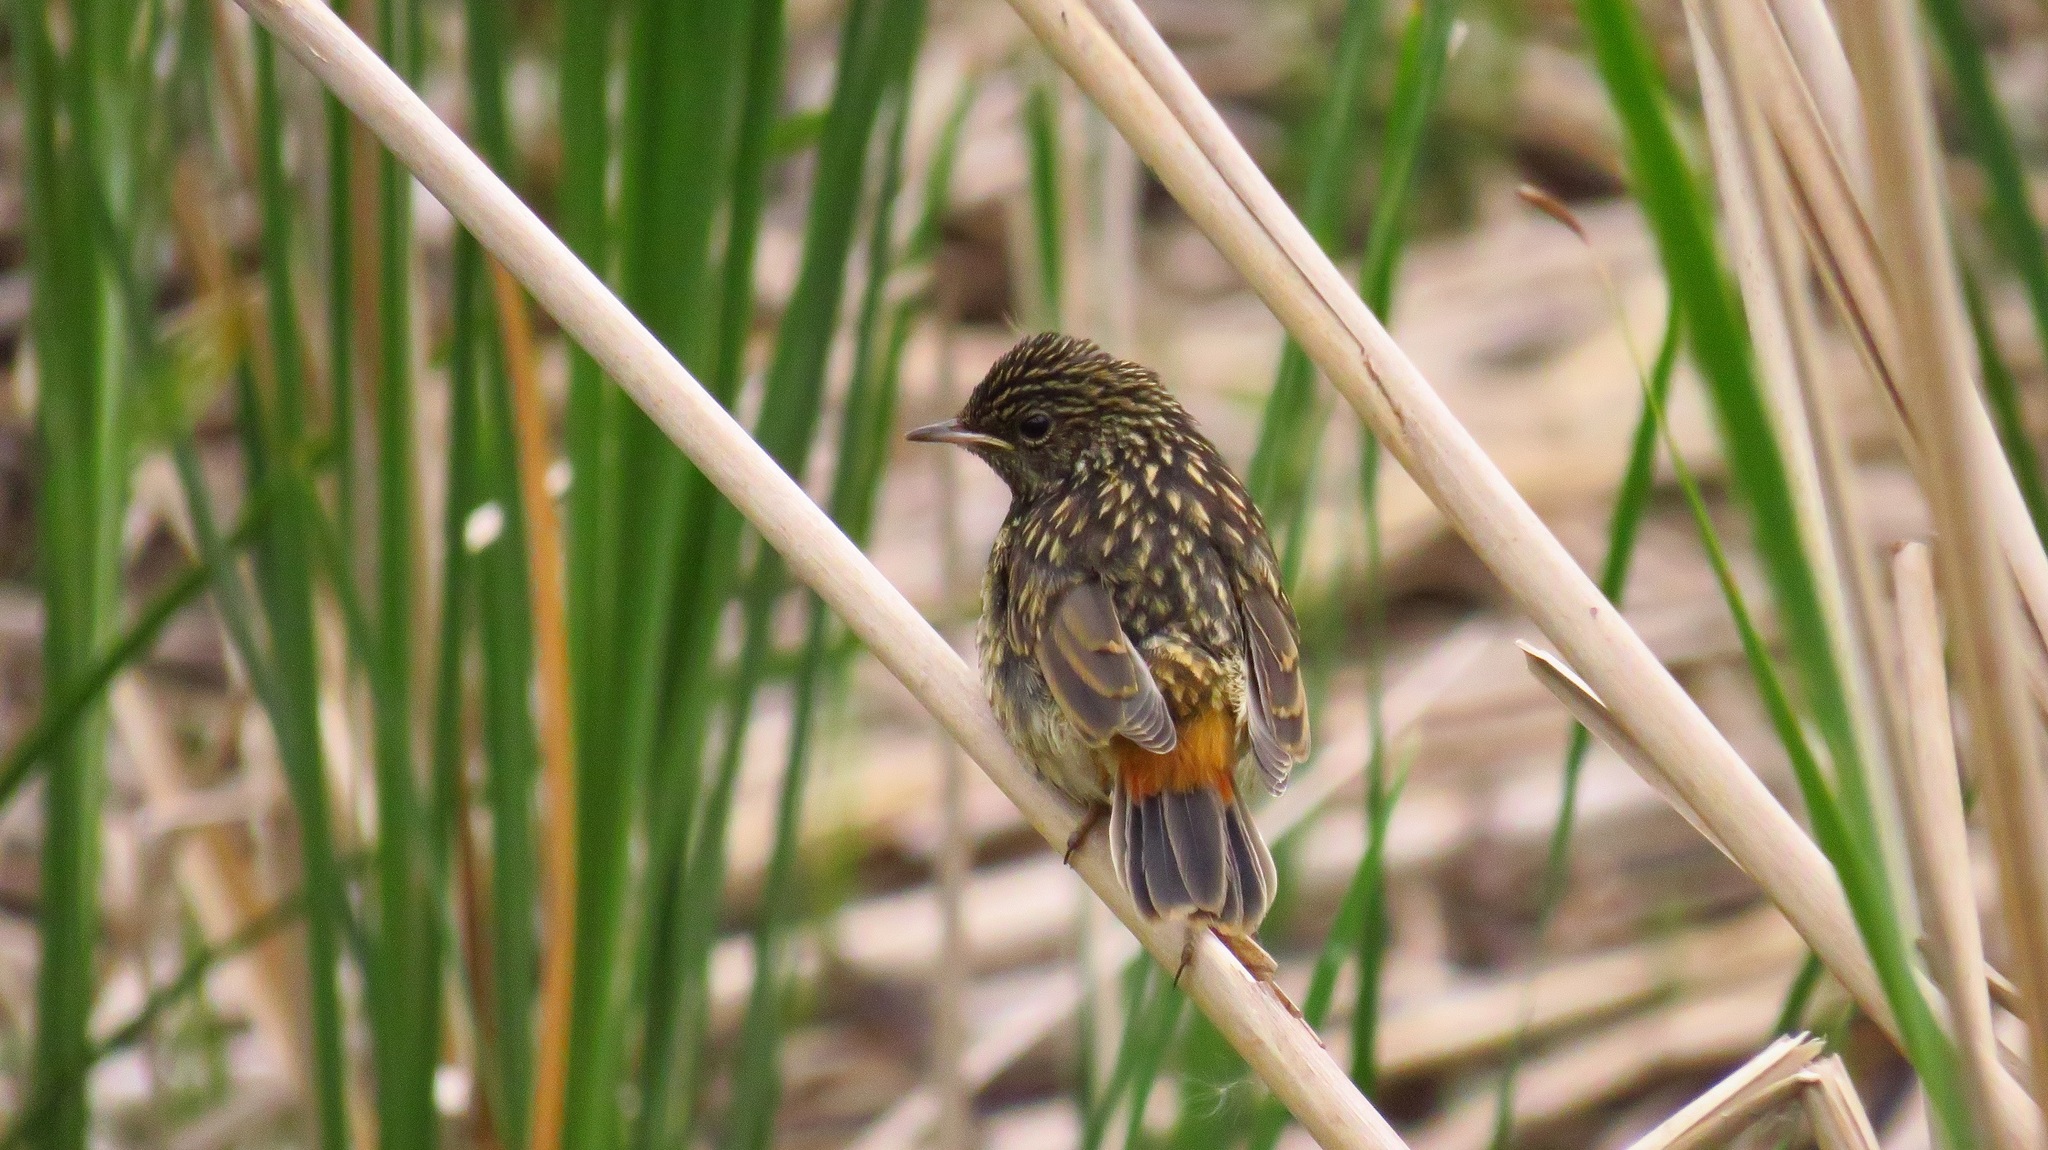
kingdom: Animalia
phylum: Chordata
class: Aves
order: Passeriformes
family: Muscicapidae
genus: Luscinia
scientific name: Luscinia svecica
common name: Bluethroat
